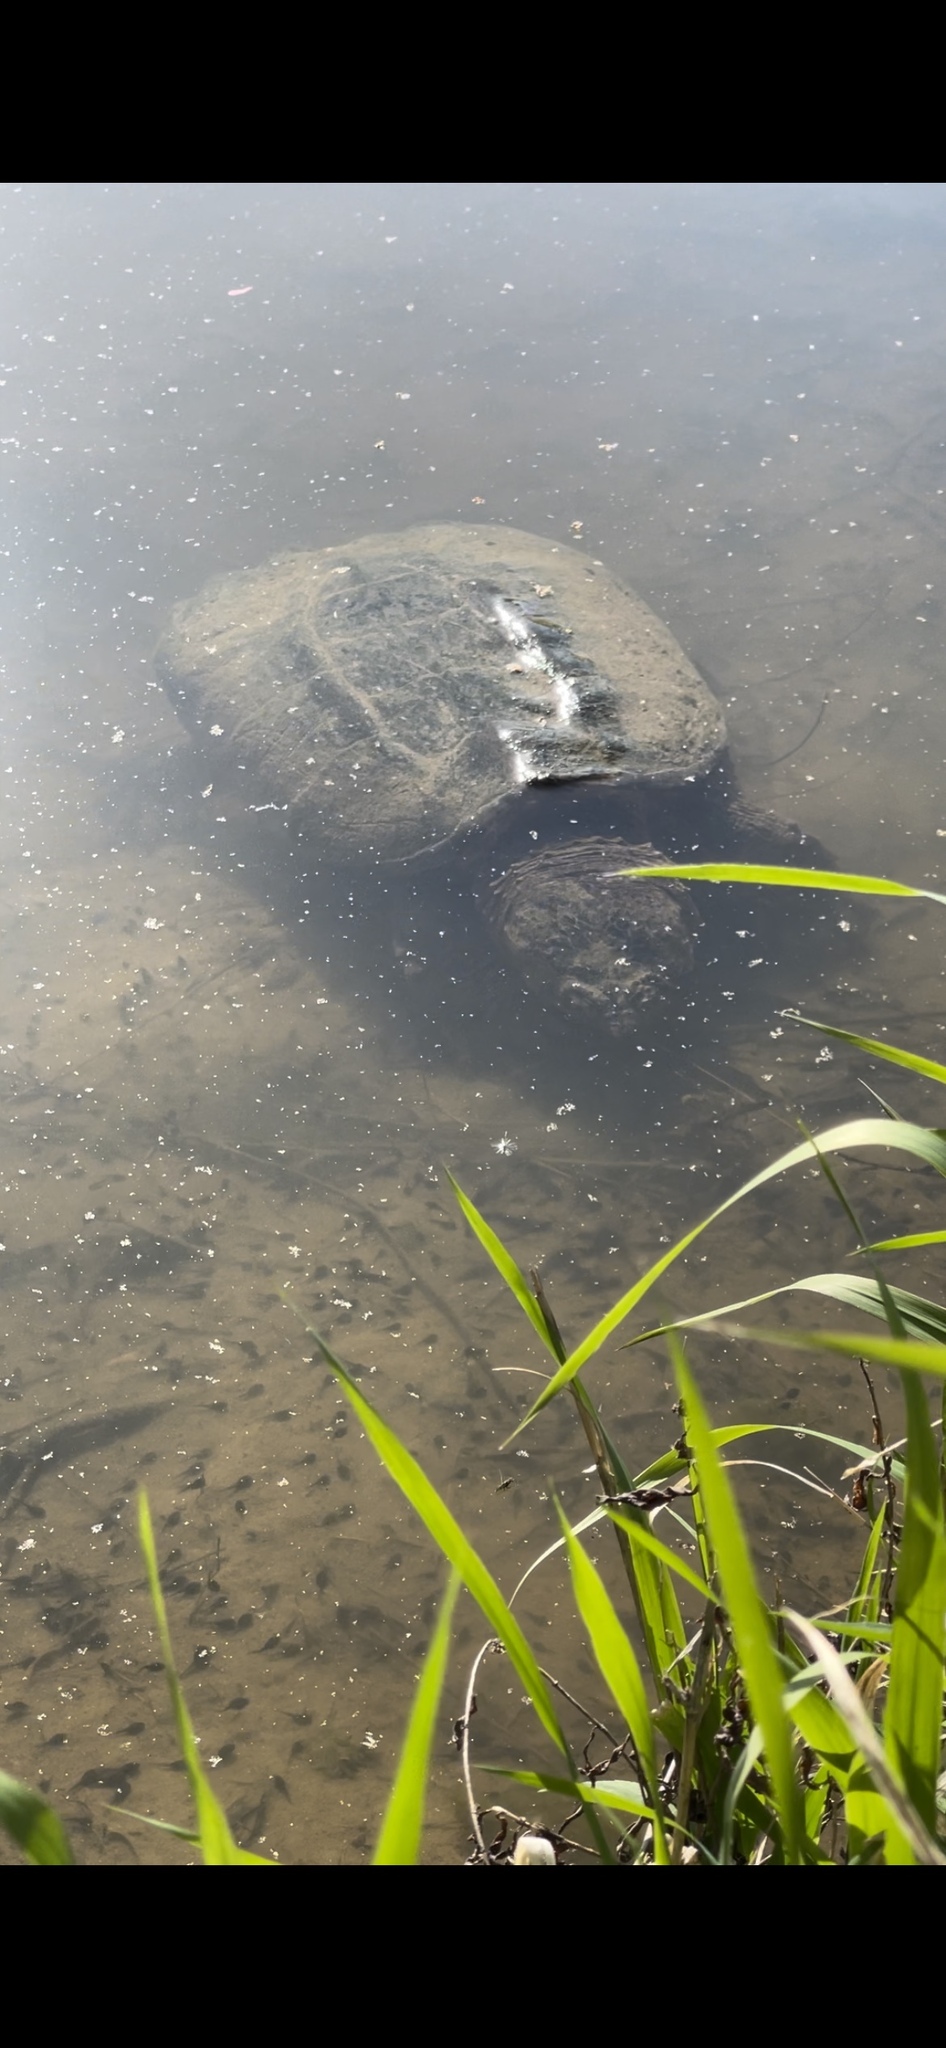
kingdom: Animalia
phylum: Chordata
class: Testudines
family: Chelydridae
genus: Chelydra
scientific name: Chelydra serpentina
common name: Common snapping turtle
